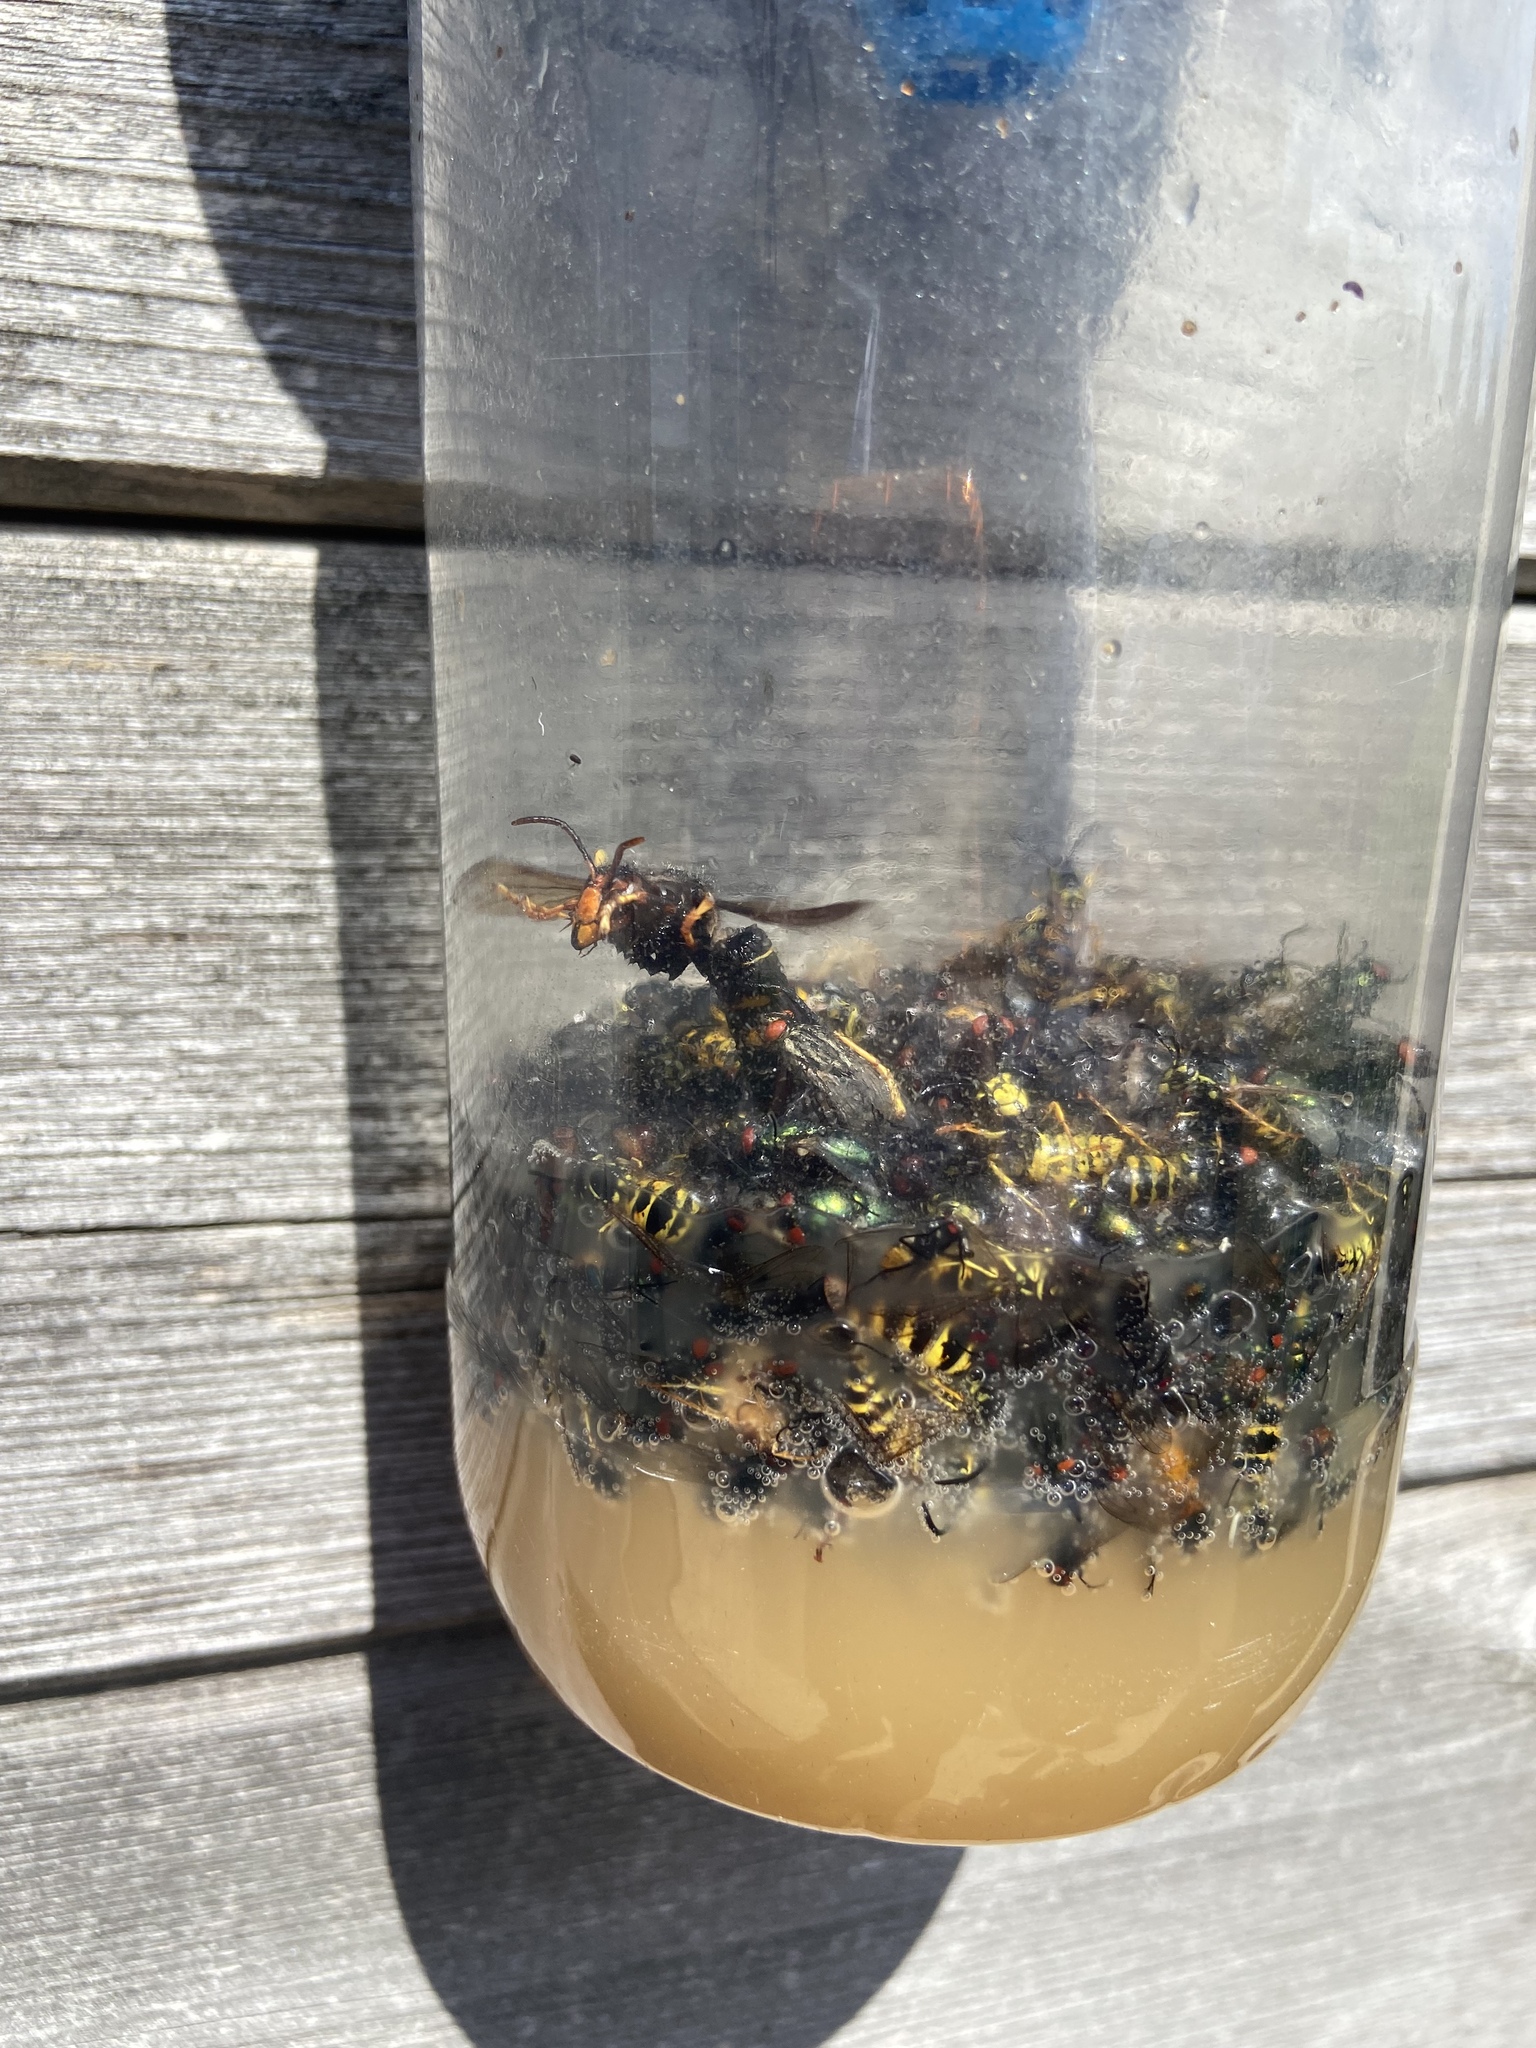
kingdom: Animalia
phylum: Arthropoda
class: Insecta
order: Hymenoptera
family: Vespidae
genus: Vespa
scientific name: Vespa velutina
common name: Asian hornet
